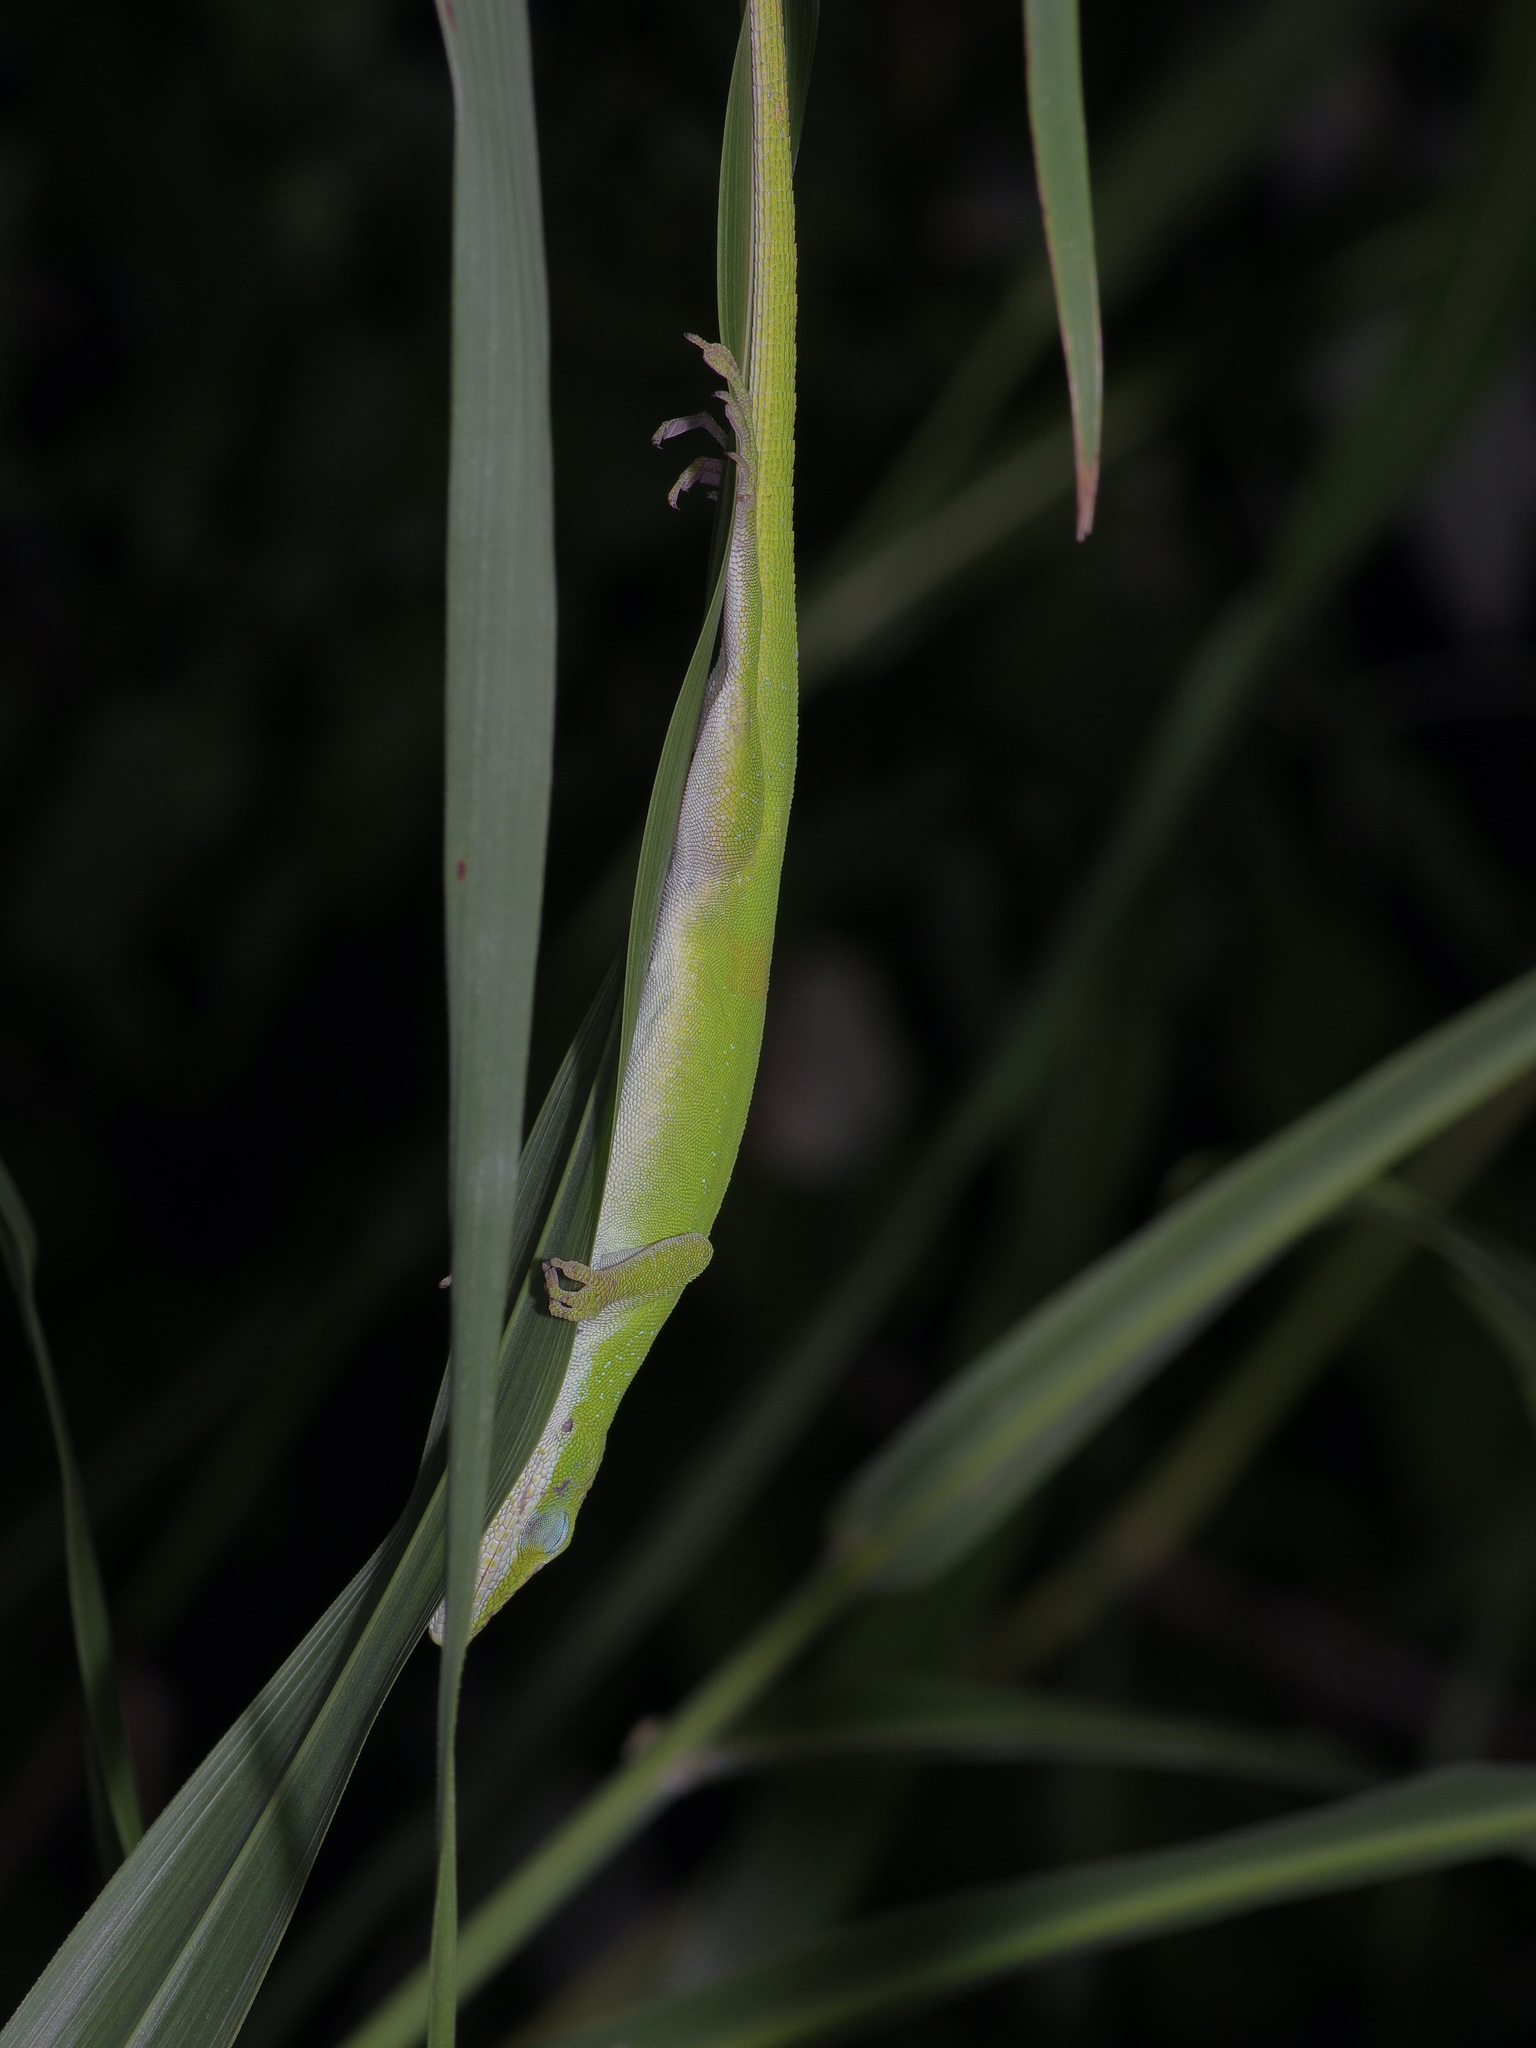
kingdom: Animalia
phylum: Chordata
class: Squamata
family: Dactyloidae
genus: Anolis
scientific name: Anolis carolinensis
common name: Green anole
